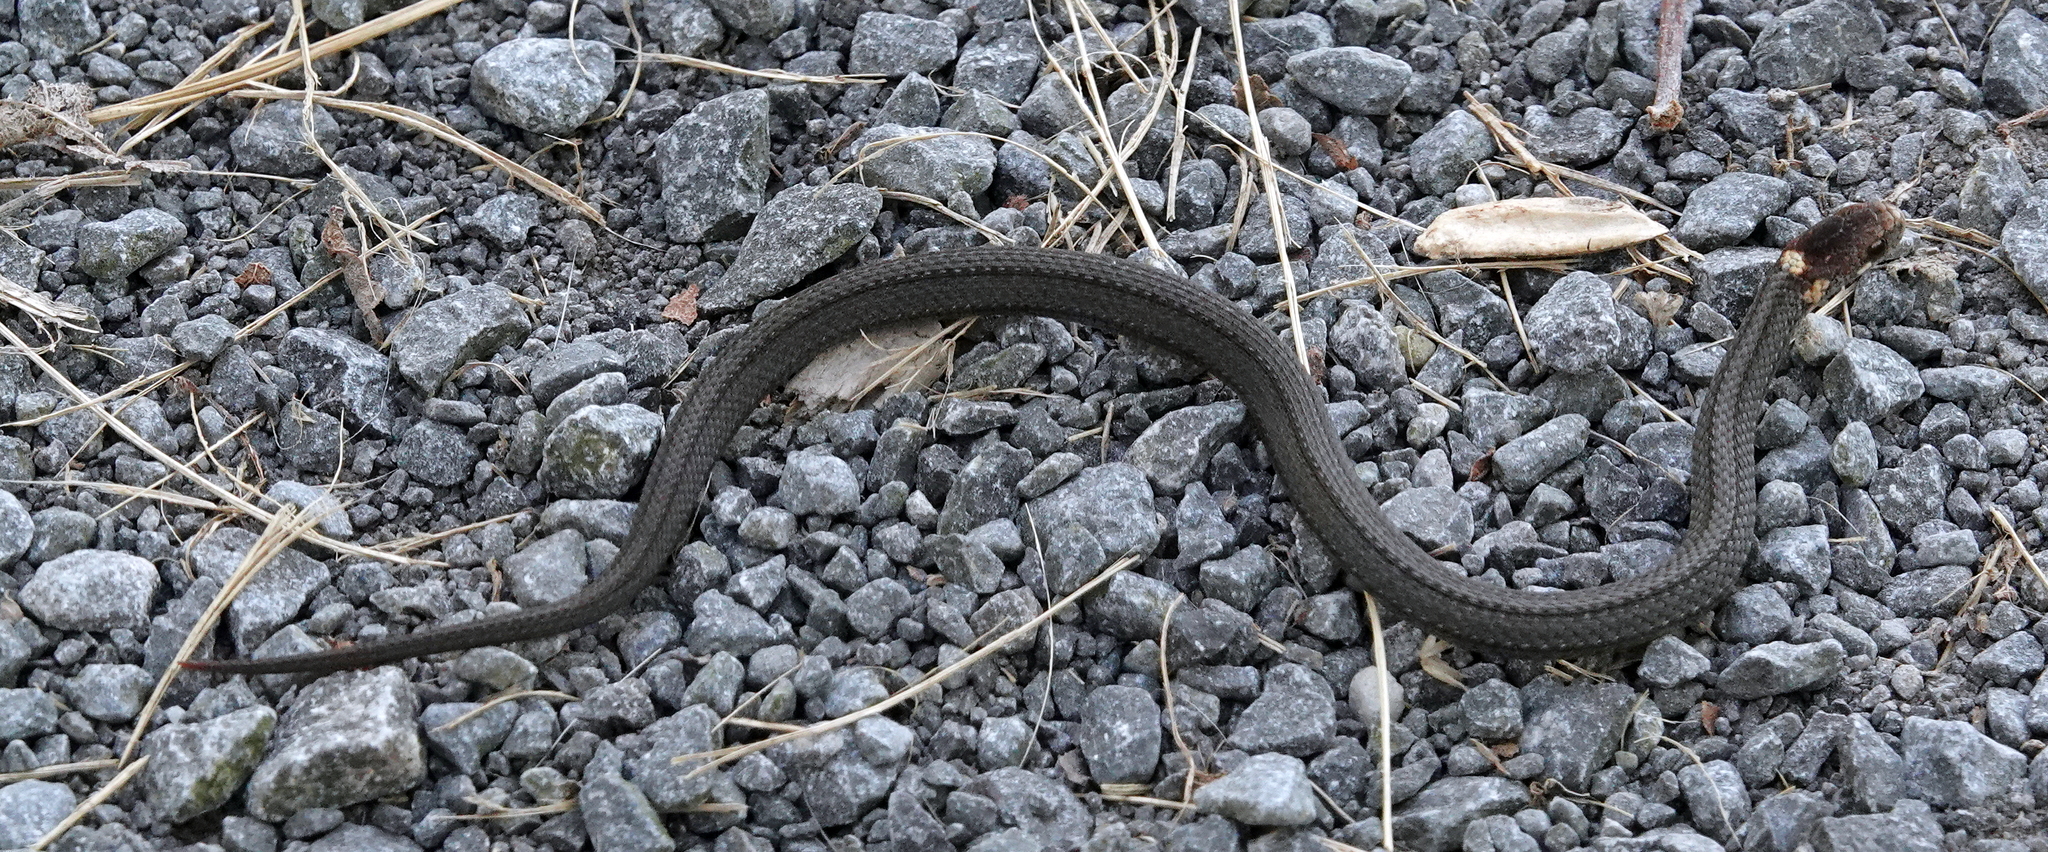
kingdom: Animalia
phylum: Chordata
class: Squamata
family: Colubridae
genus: Storeria
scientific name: Storeria occipitomaculata
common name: Redbelly snake
